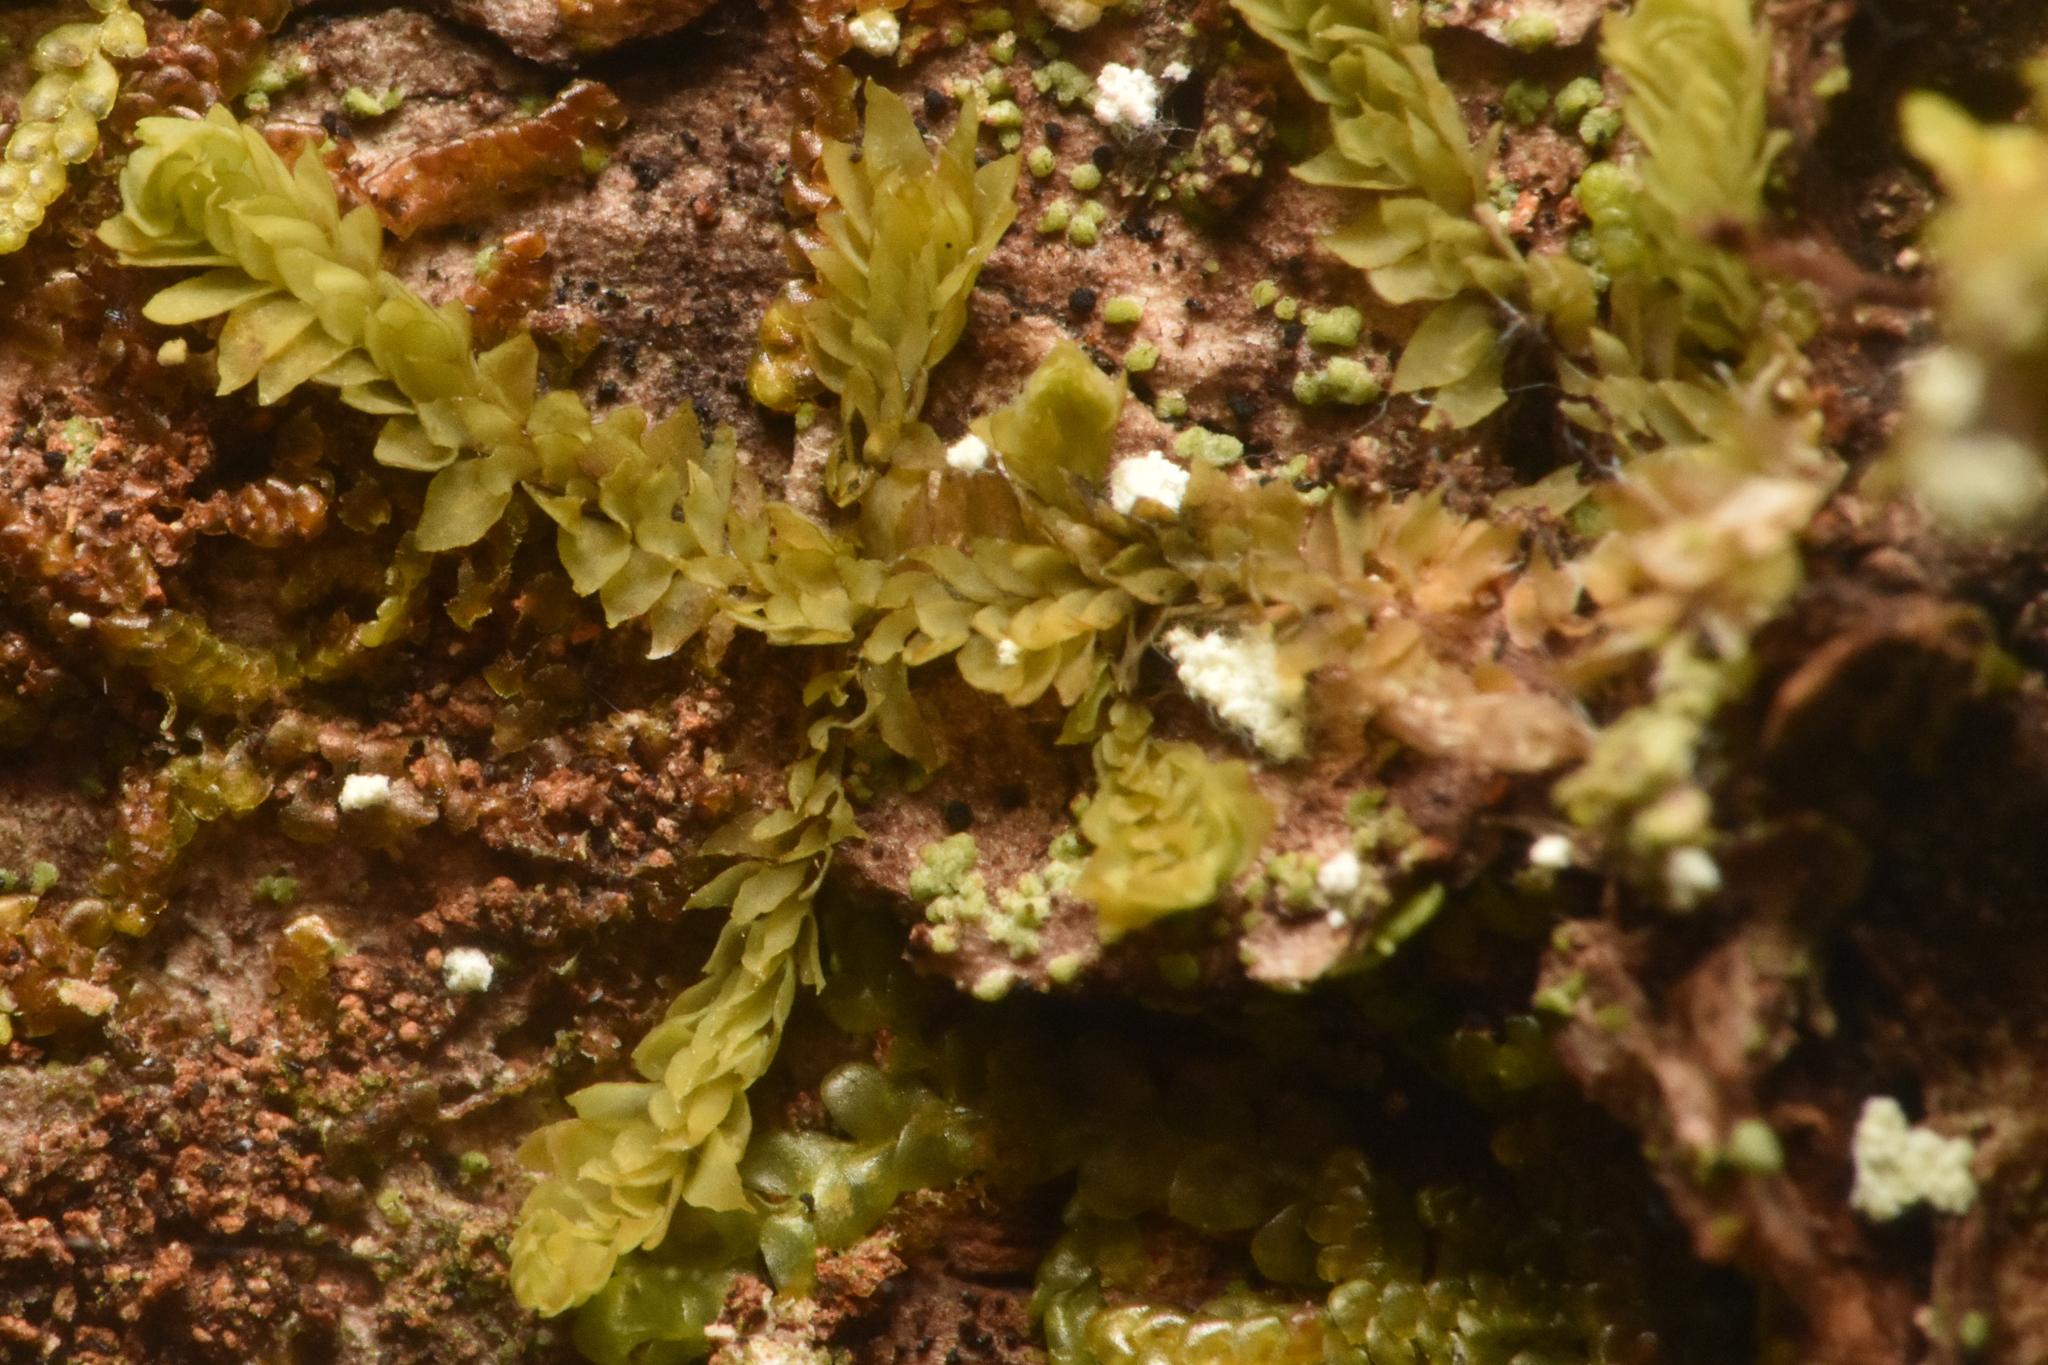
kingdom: Plantae
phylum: Marchantiophyta
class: Jungermanniopsida
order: Jungermanniales
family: Scapaniaceae
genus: Douinia
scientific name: Douinia ovata
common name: Waxy earwort
